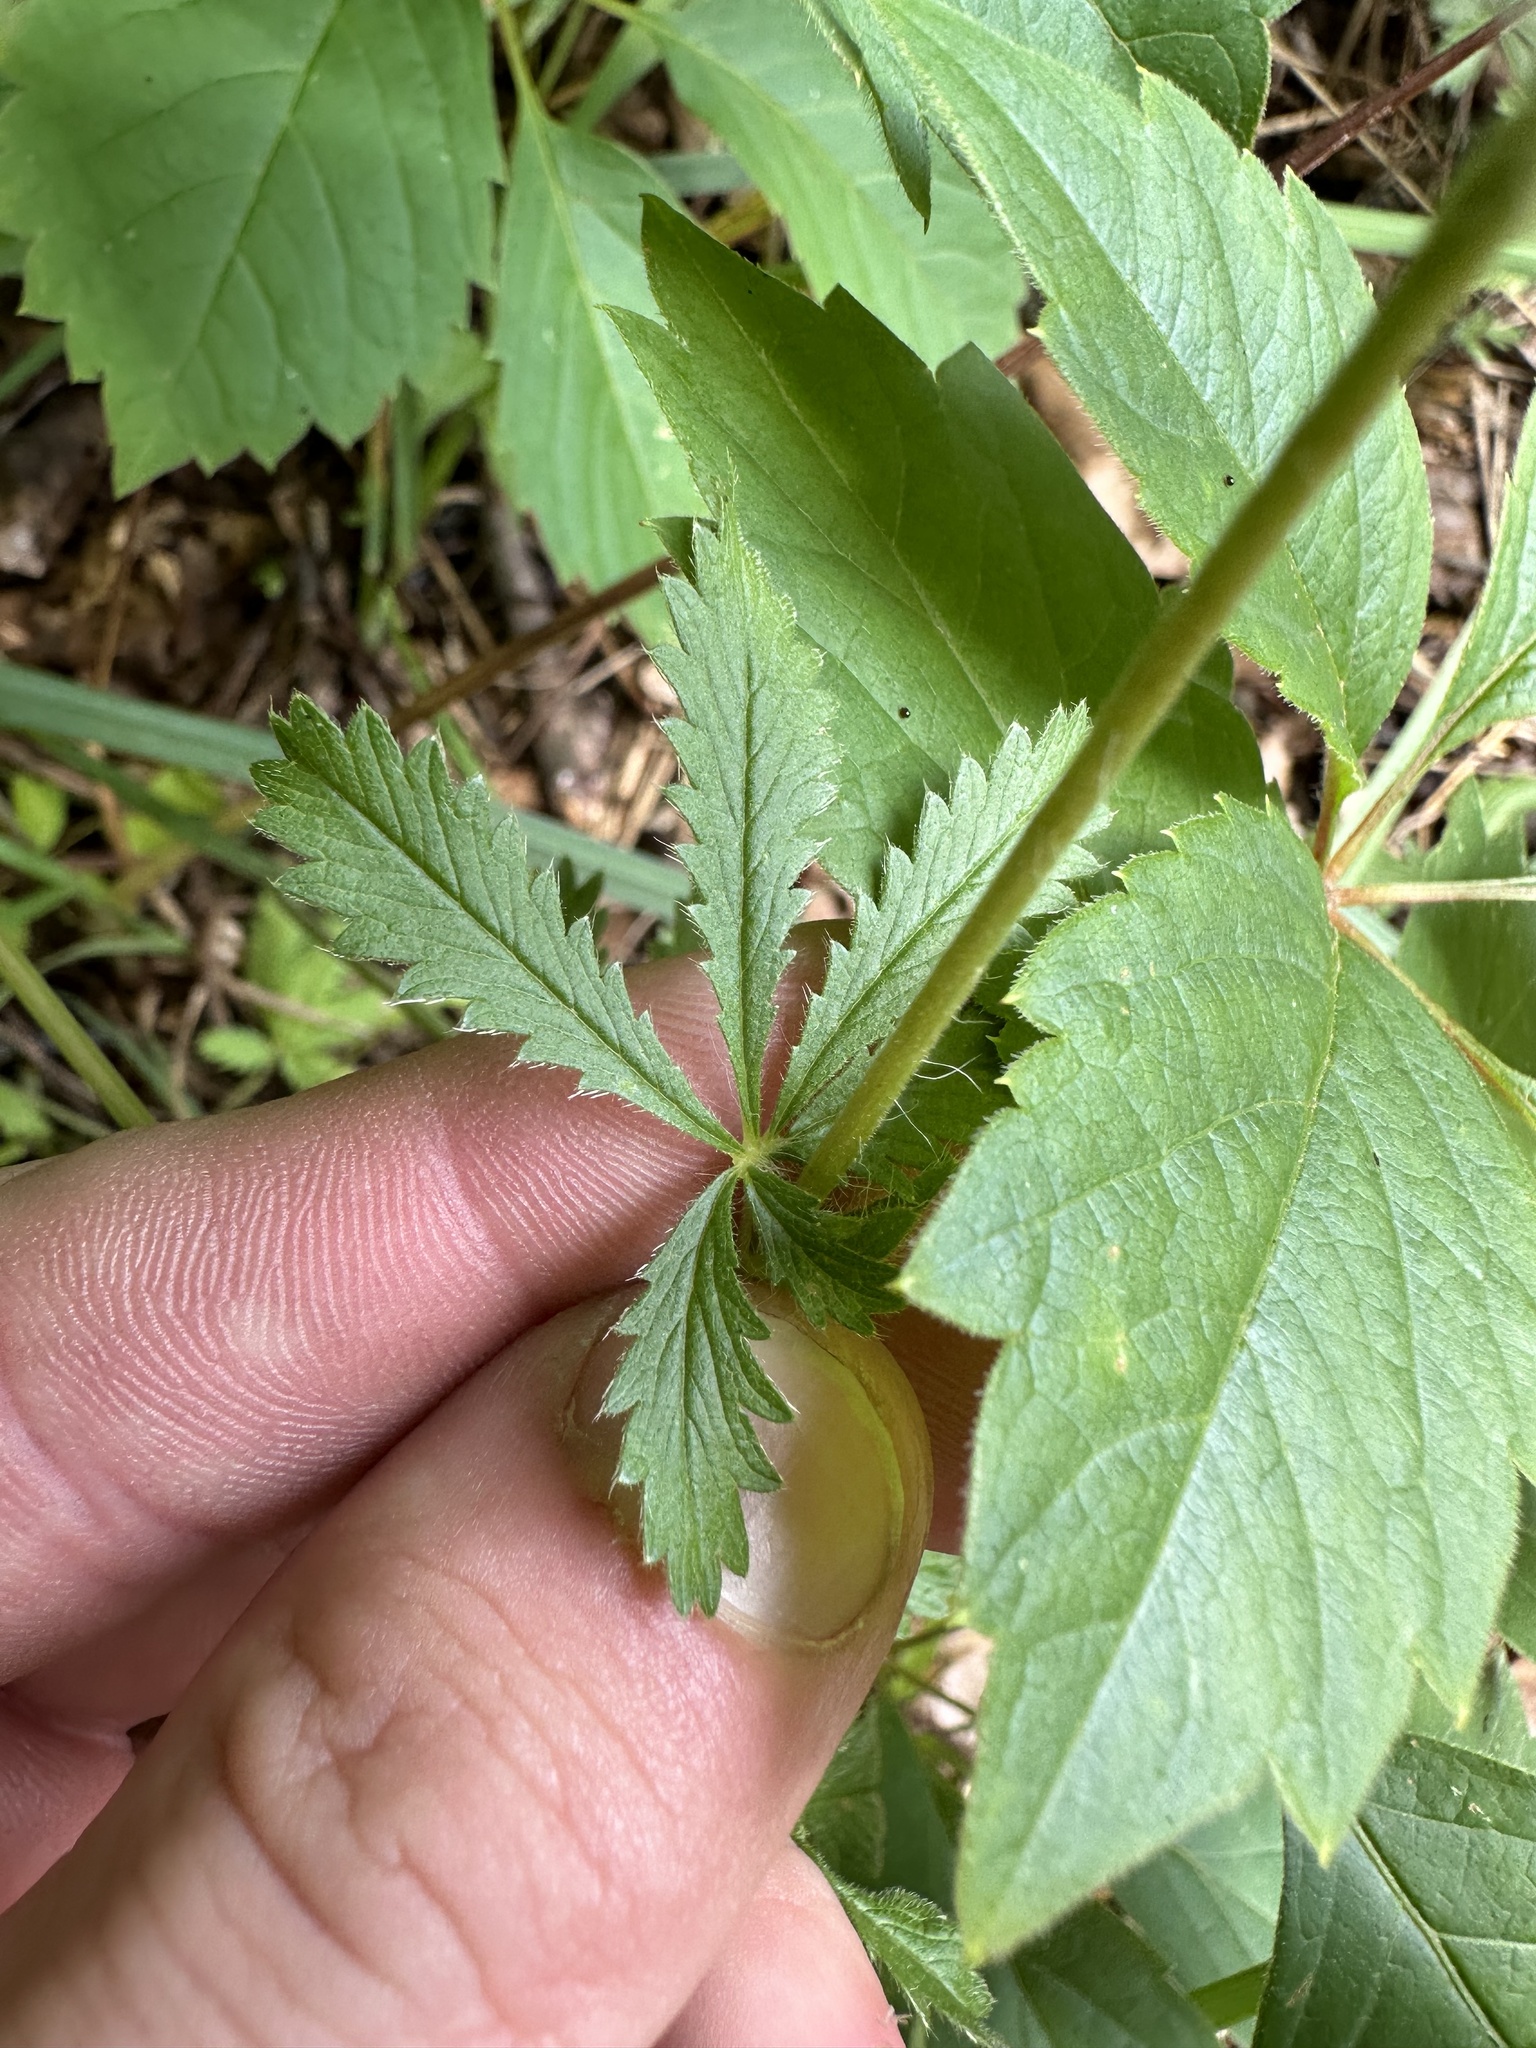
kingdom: Plantae
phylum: Tracheophyta
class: Magnoliopsida
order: Rosales
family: Rosaceae
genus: Potentilla
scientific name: Potentilla recta
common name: Sulphur cinquefoil
